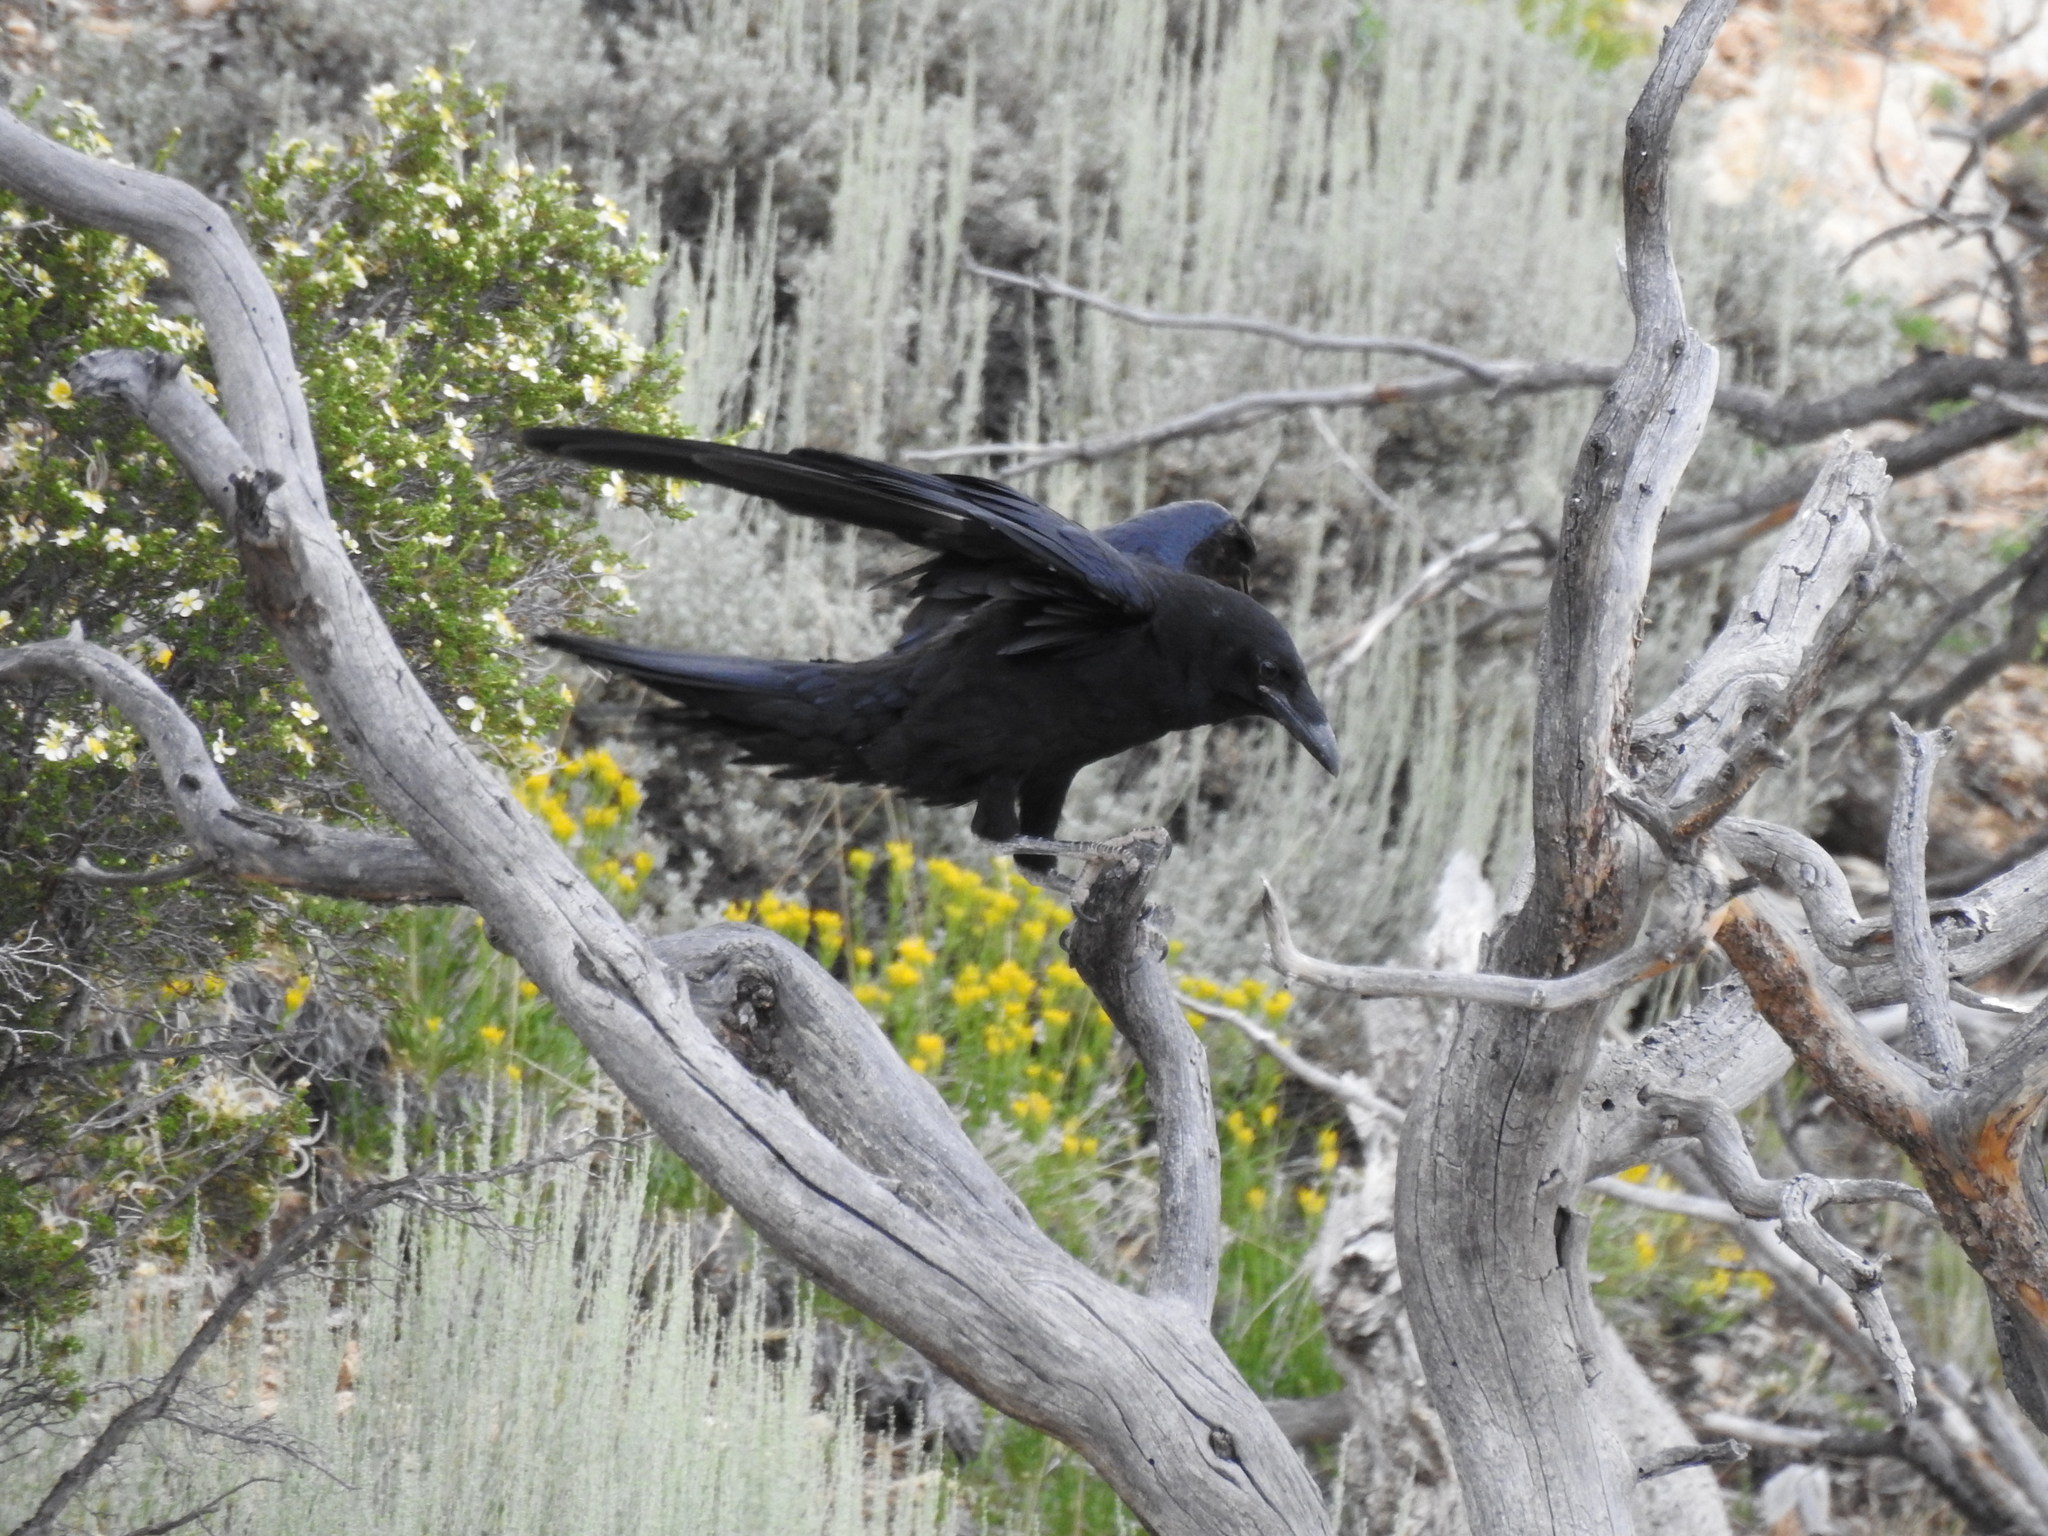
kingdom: Animalia
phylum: Chordata
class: Aves
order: Passeriformes
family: Corvidae
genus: Corvus
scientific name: Corvus corax
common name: Common raven
